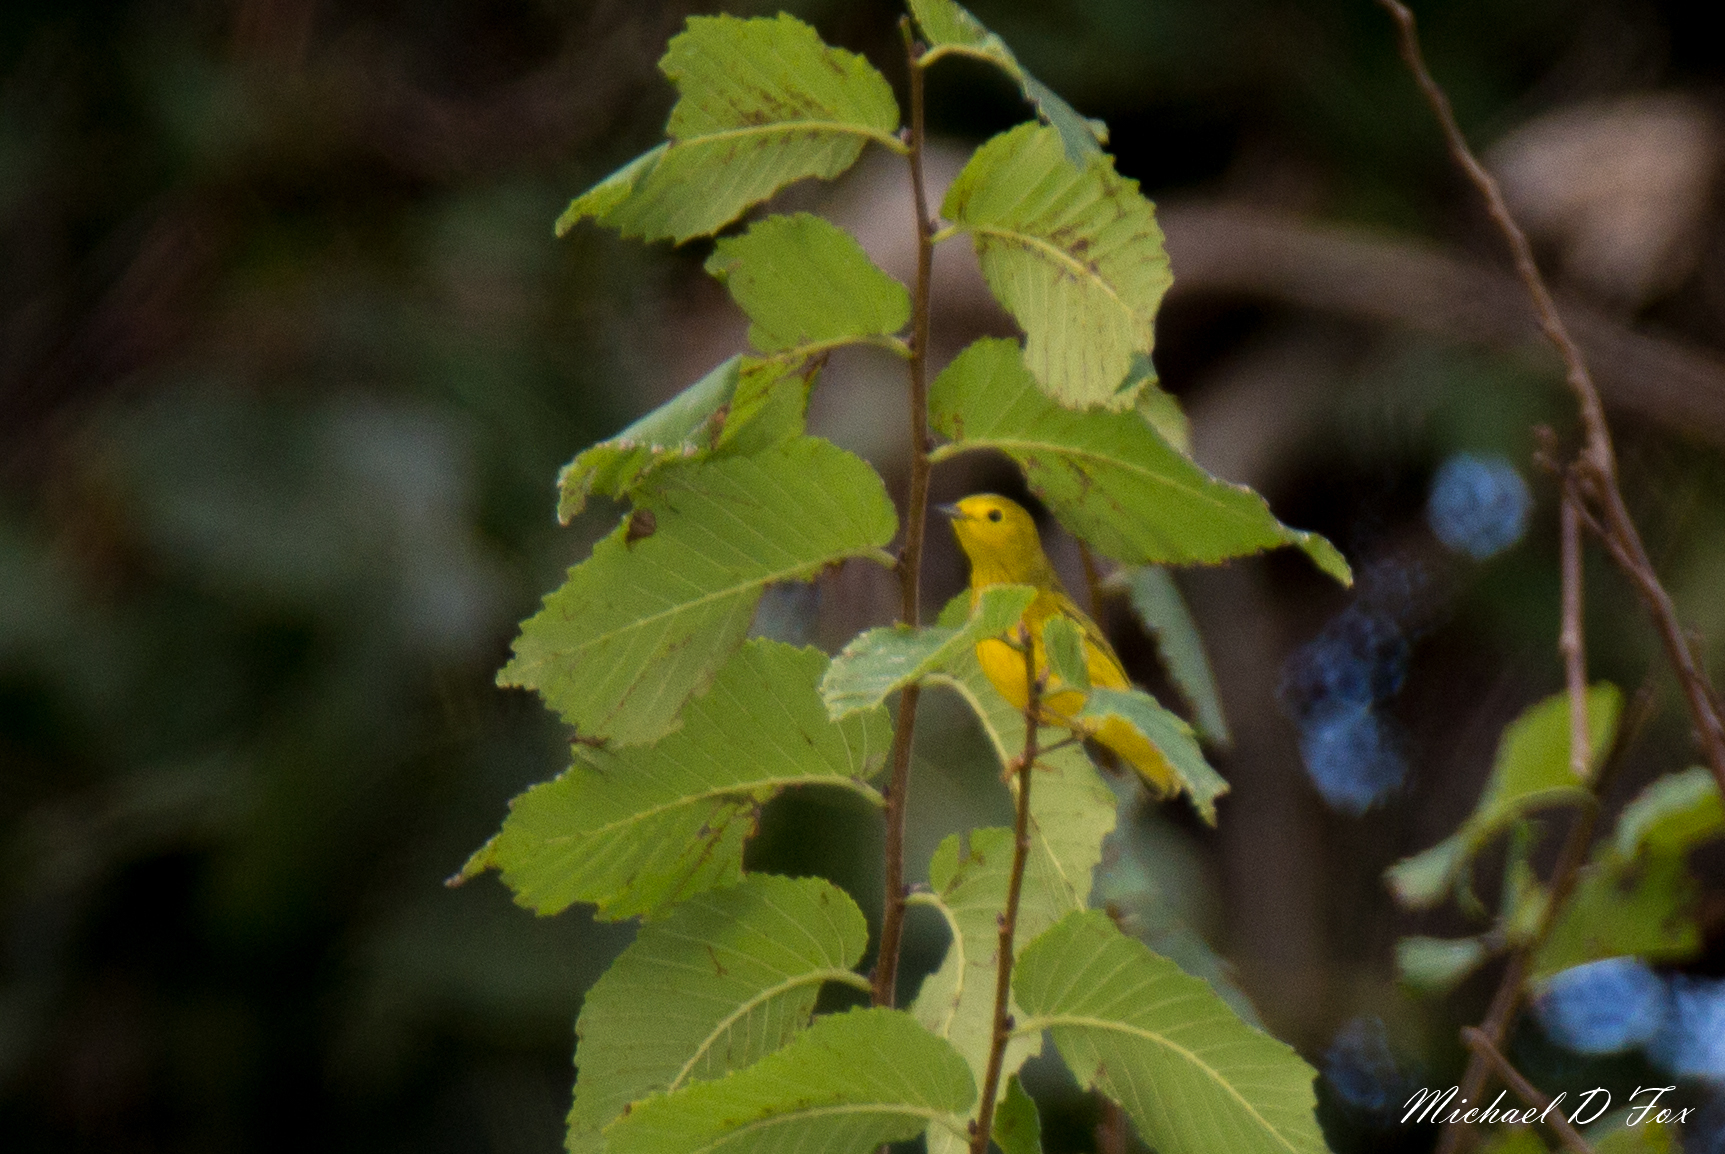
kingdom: Animalia
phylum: Chordata
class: Aves
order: Passeriformes
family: Parulidae
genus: Setophaga
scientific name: Setophaga petechia
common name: Yellow warbler
